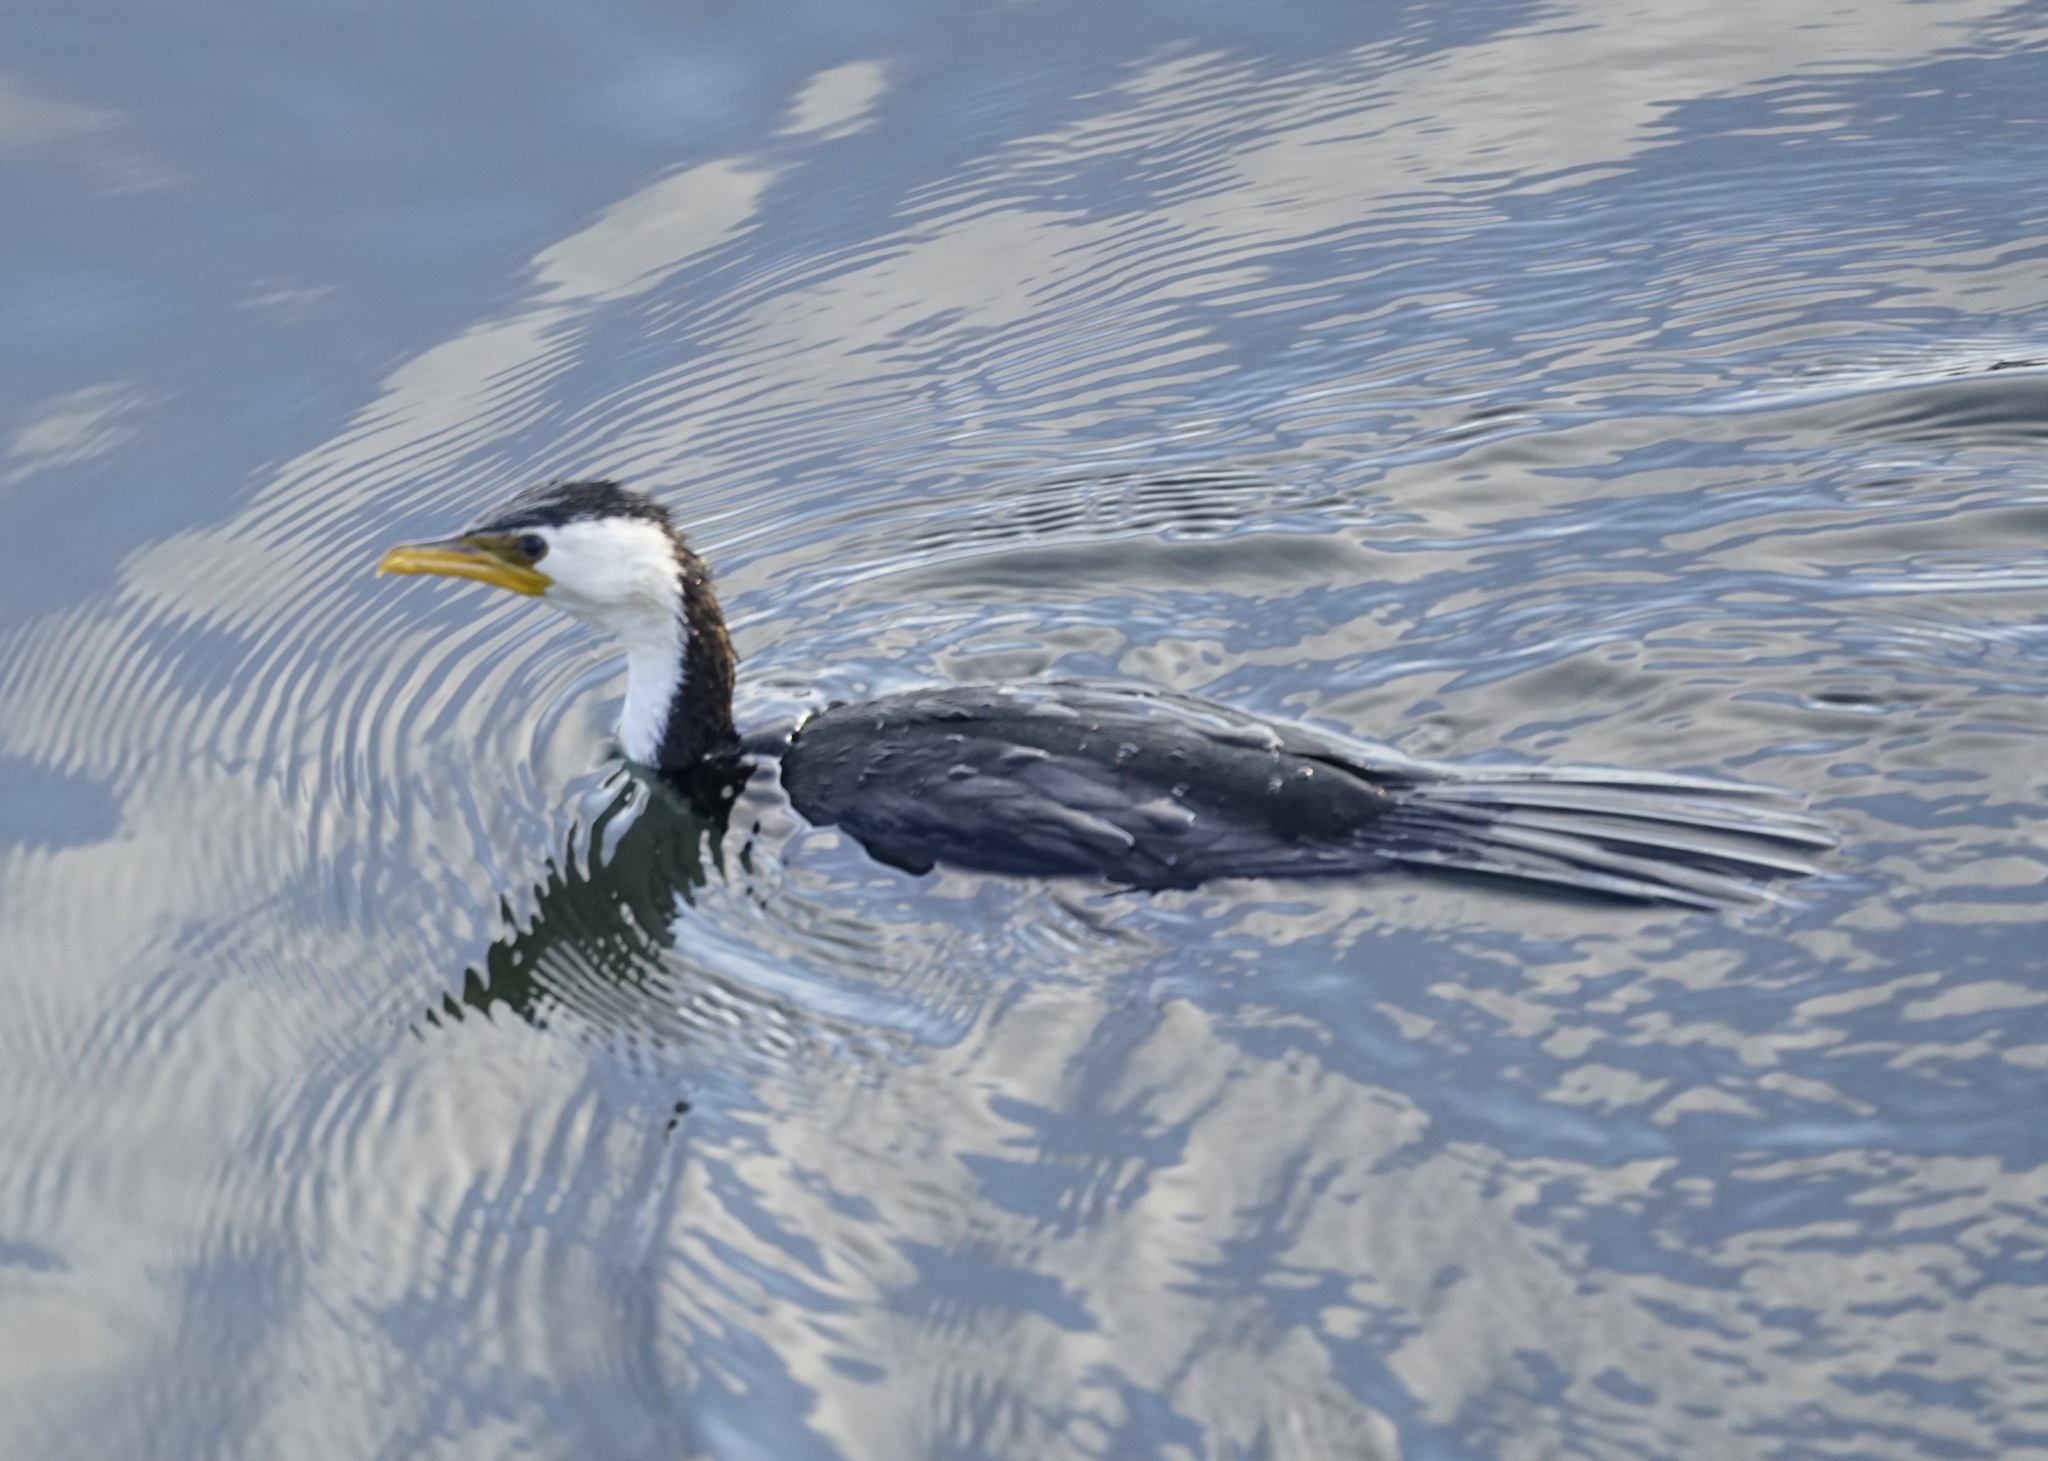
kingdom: Animalia
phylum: Chordata
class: Aves
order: Suliformes
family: Phalacrocoracidae
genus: Microcarbo
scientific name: Microcarbo melanoleucos
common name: Little pied cormorant
